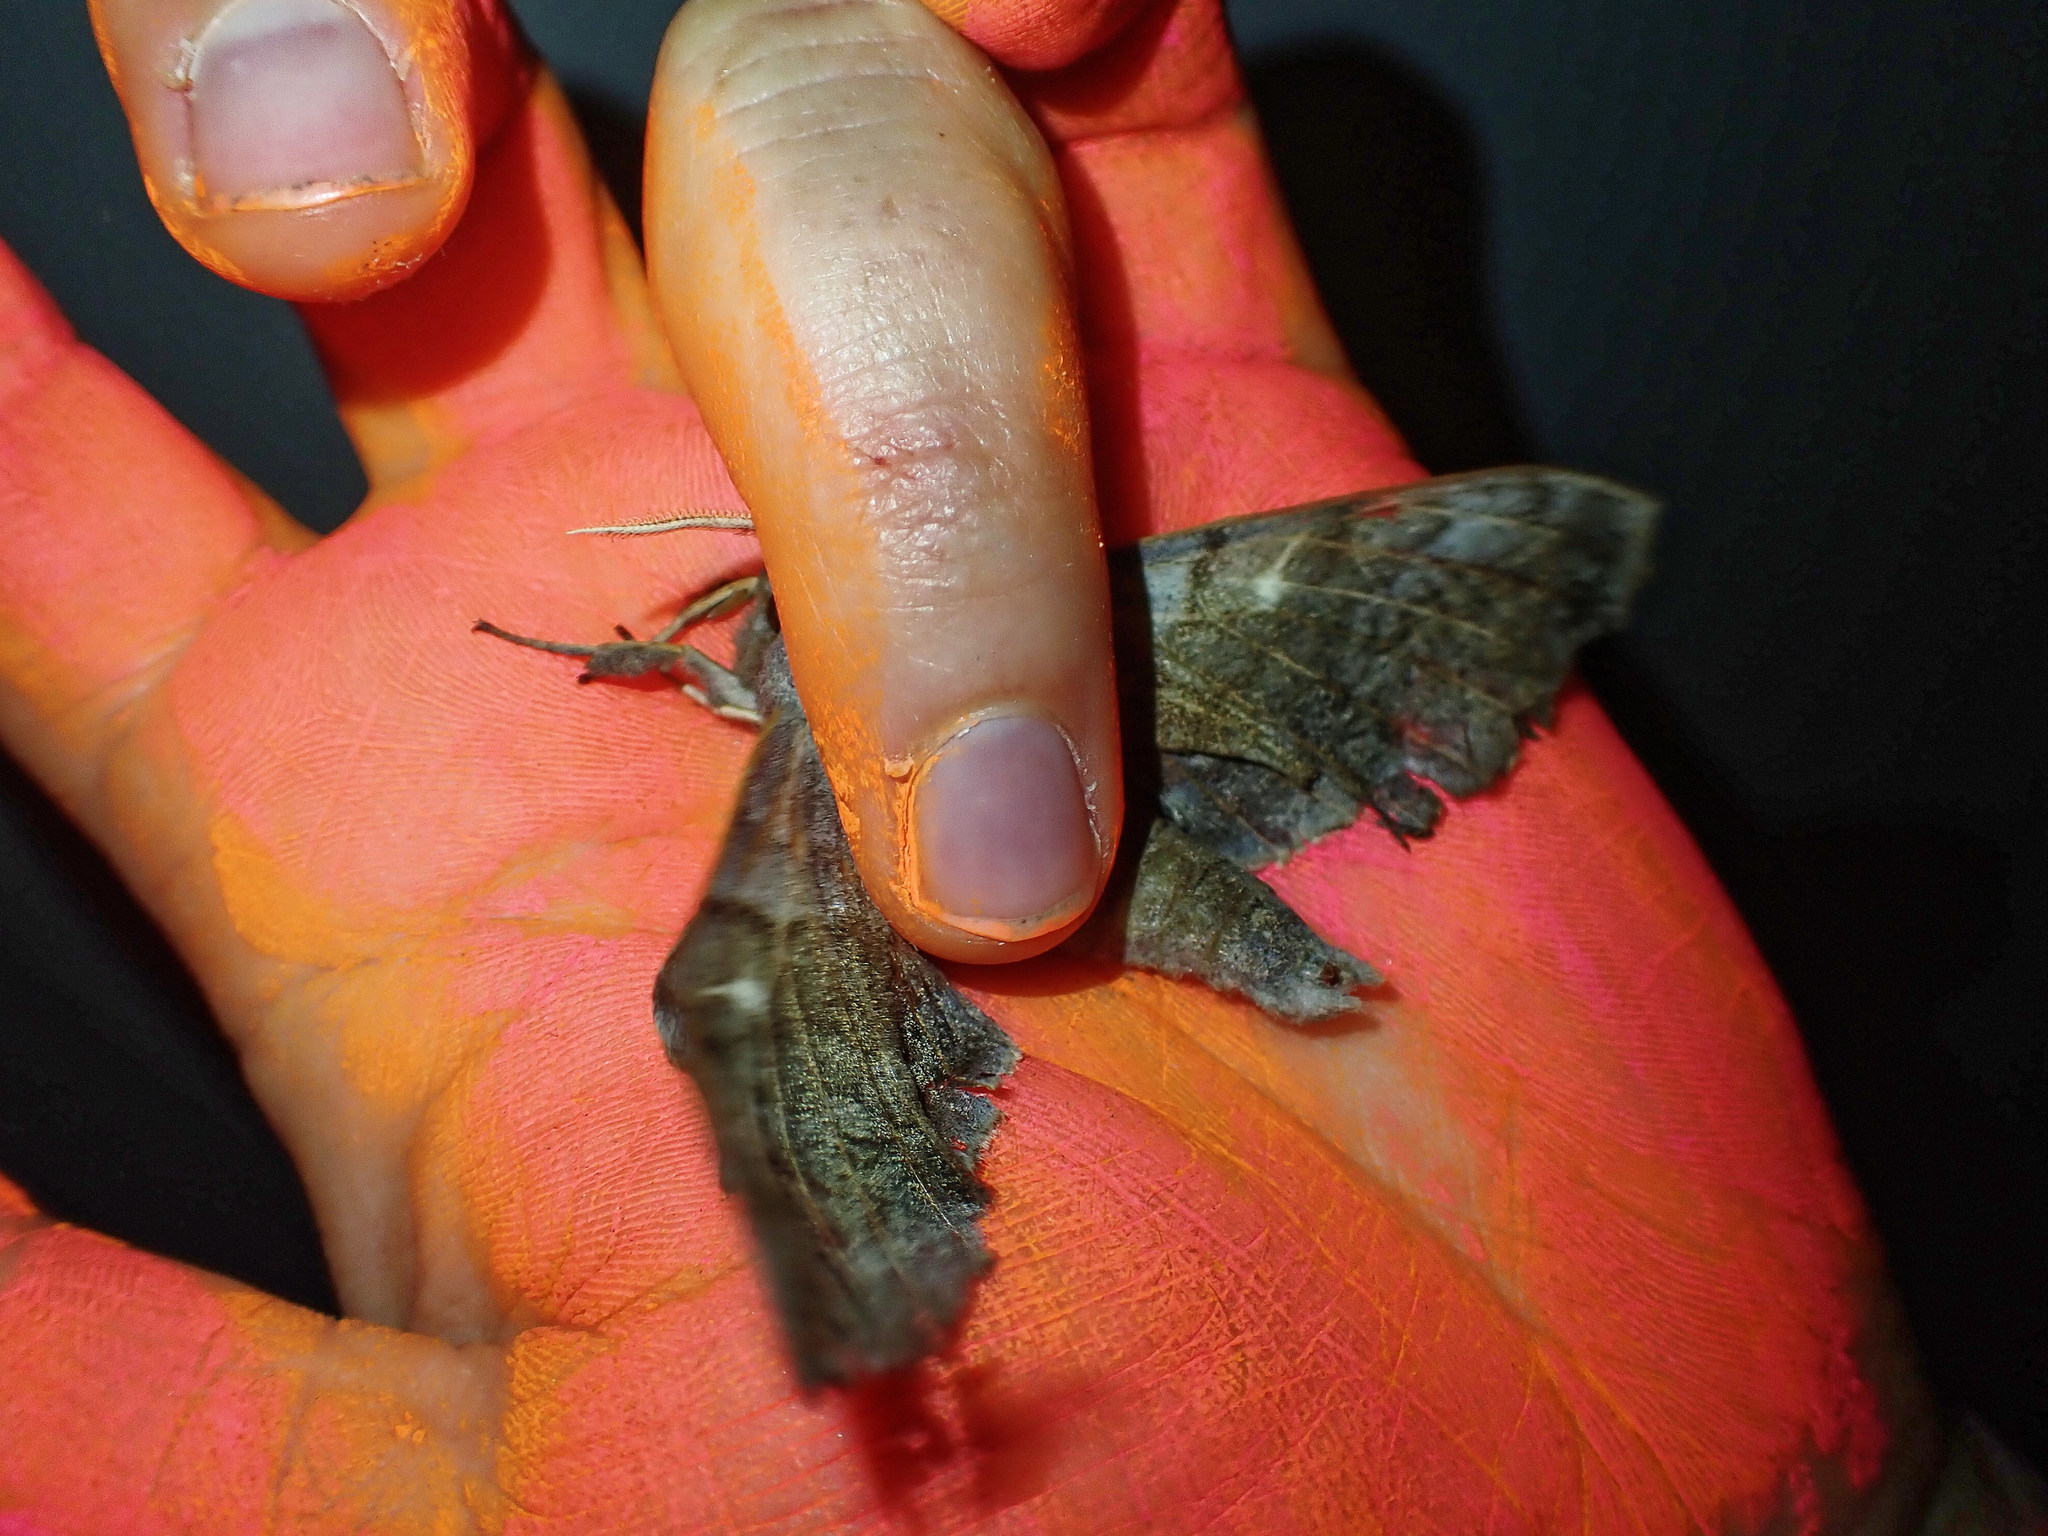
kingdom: Animalia
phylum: Arthropoda
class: Insecta
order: Lepidoptera
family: Sphingidae
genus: Laothoe
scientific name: Laothoe populi
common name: Poplar hawk-moth
